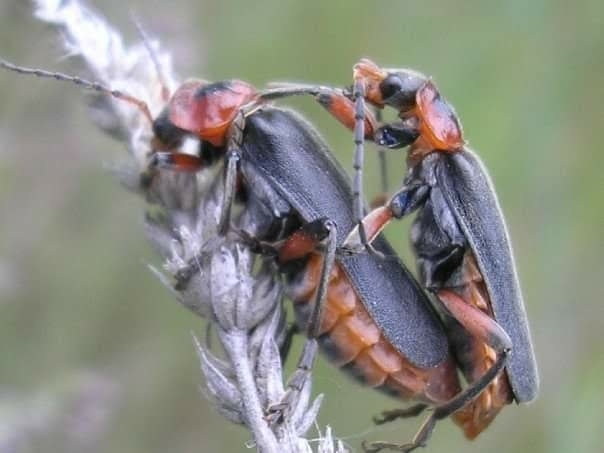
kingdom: Animalia
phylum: Arthropoda
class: Insecta
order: Coleoptera
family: Cantharidae
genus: Cantharis
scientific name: Cantharis rustica
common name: Soldier beetle
